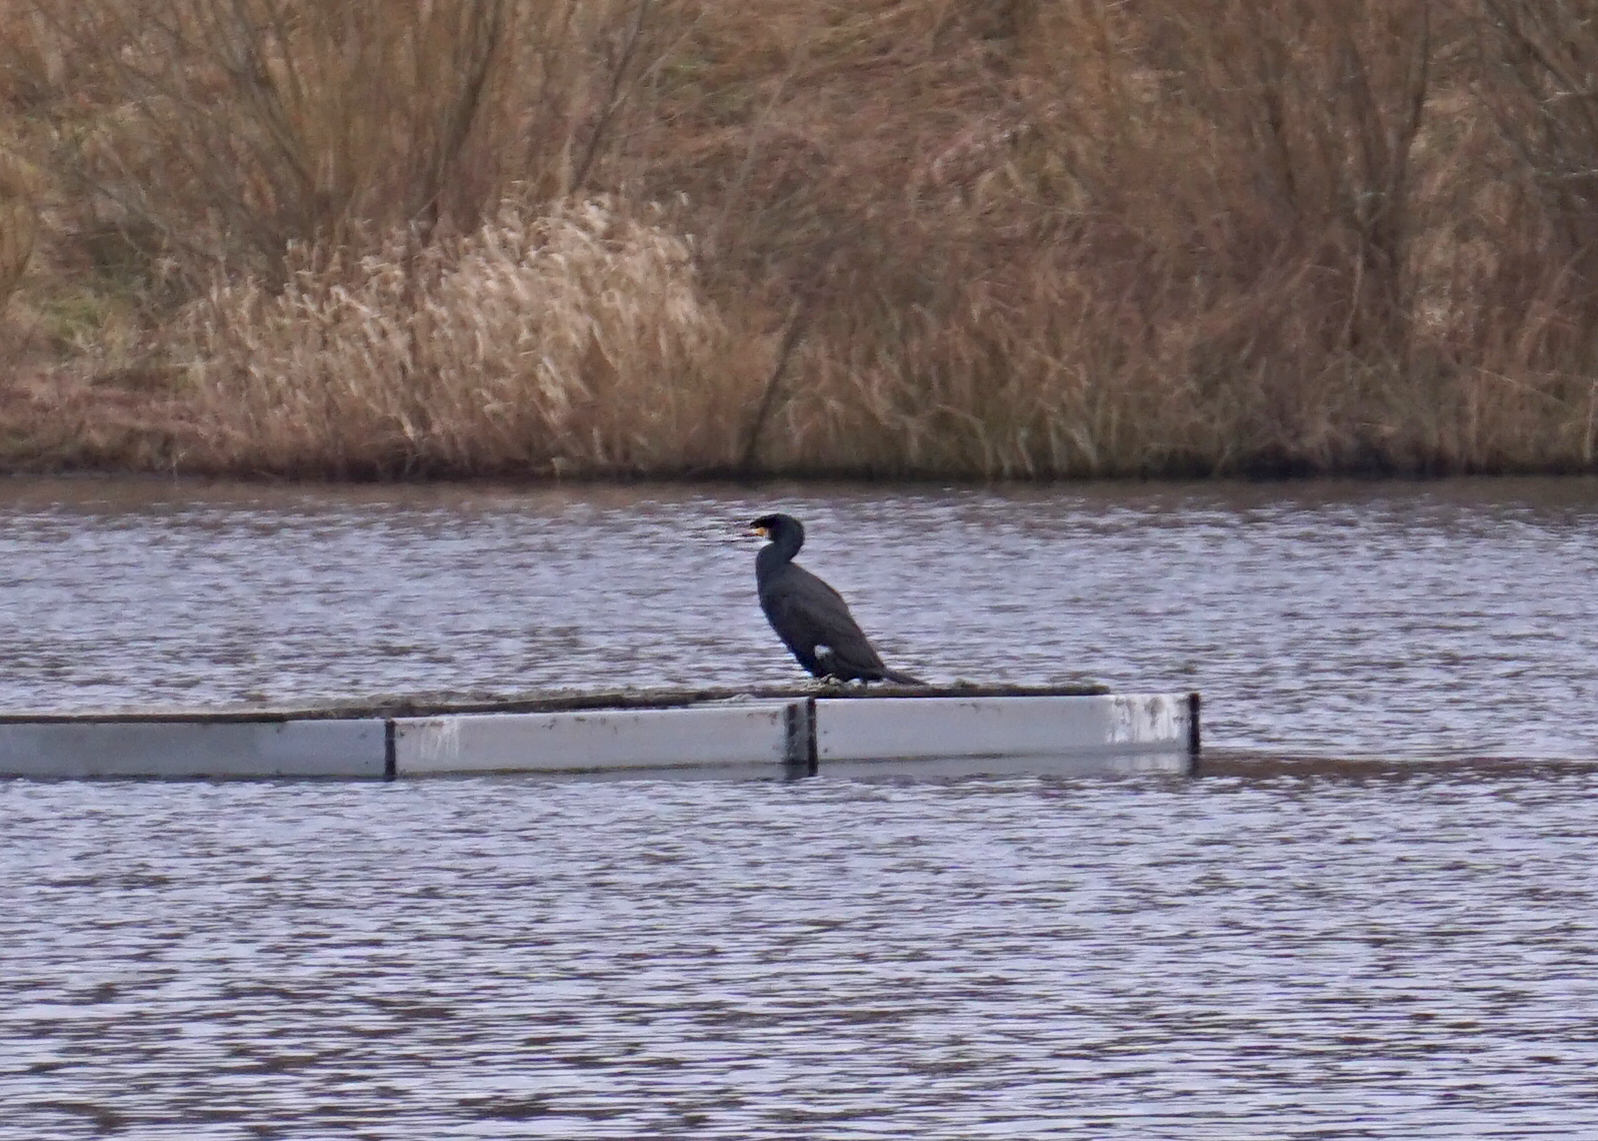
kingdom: Animalia
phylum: Chordata
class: Aves
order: Suliformes
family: Phalacrocoracidae
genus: Phalacrocorax
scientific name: Phalacrocorax carbo
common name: Great cormorant
